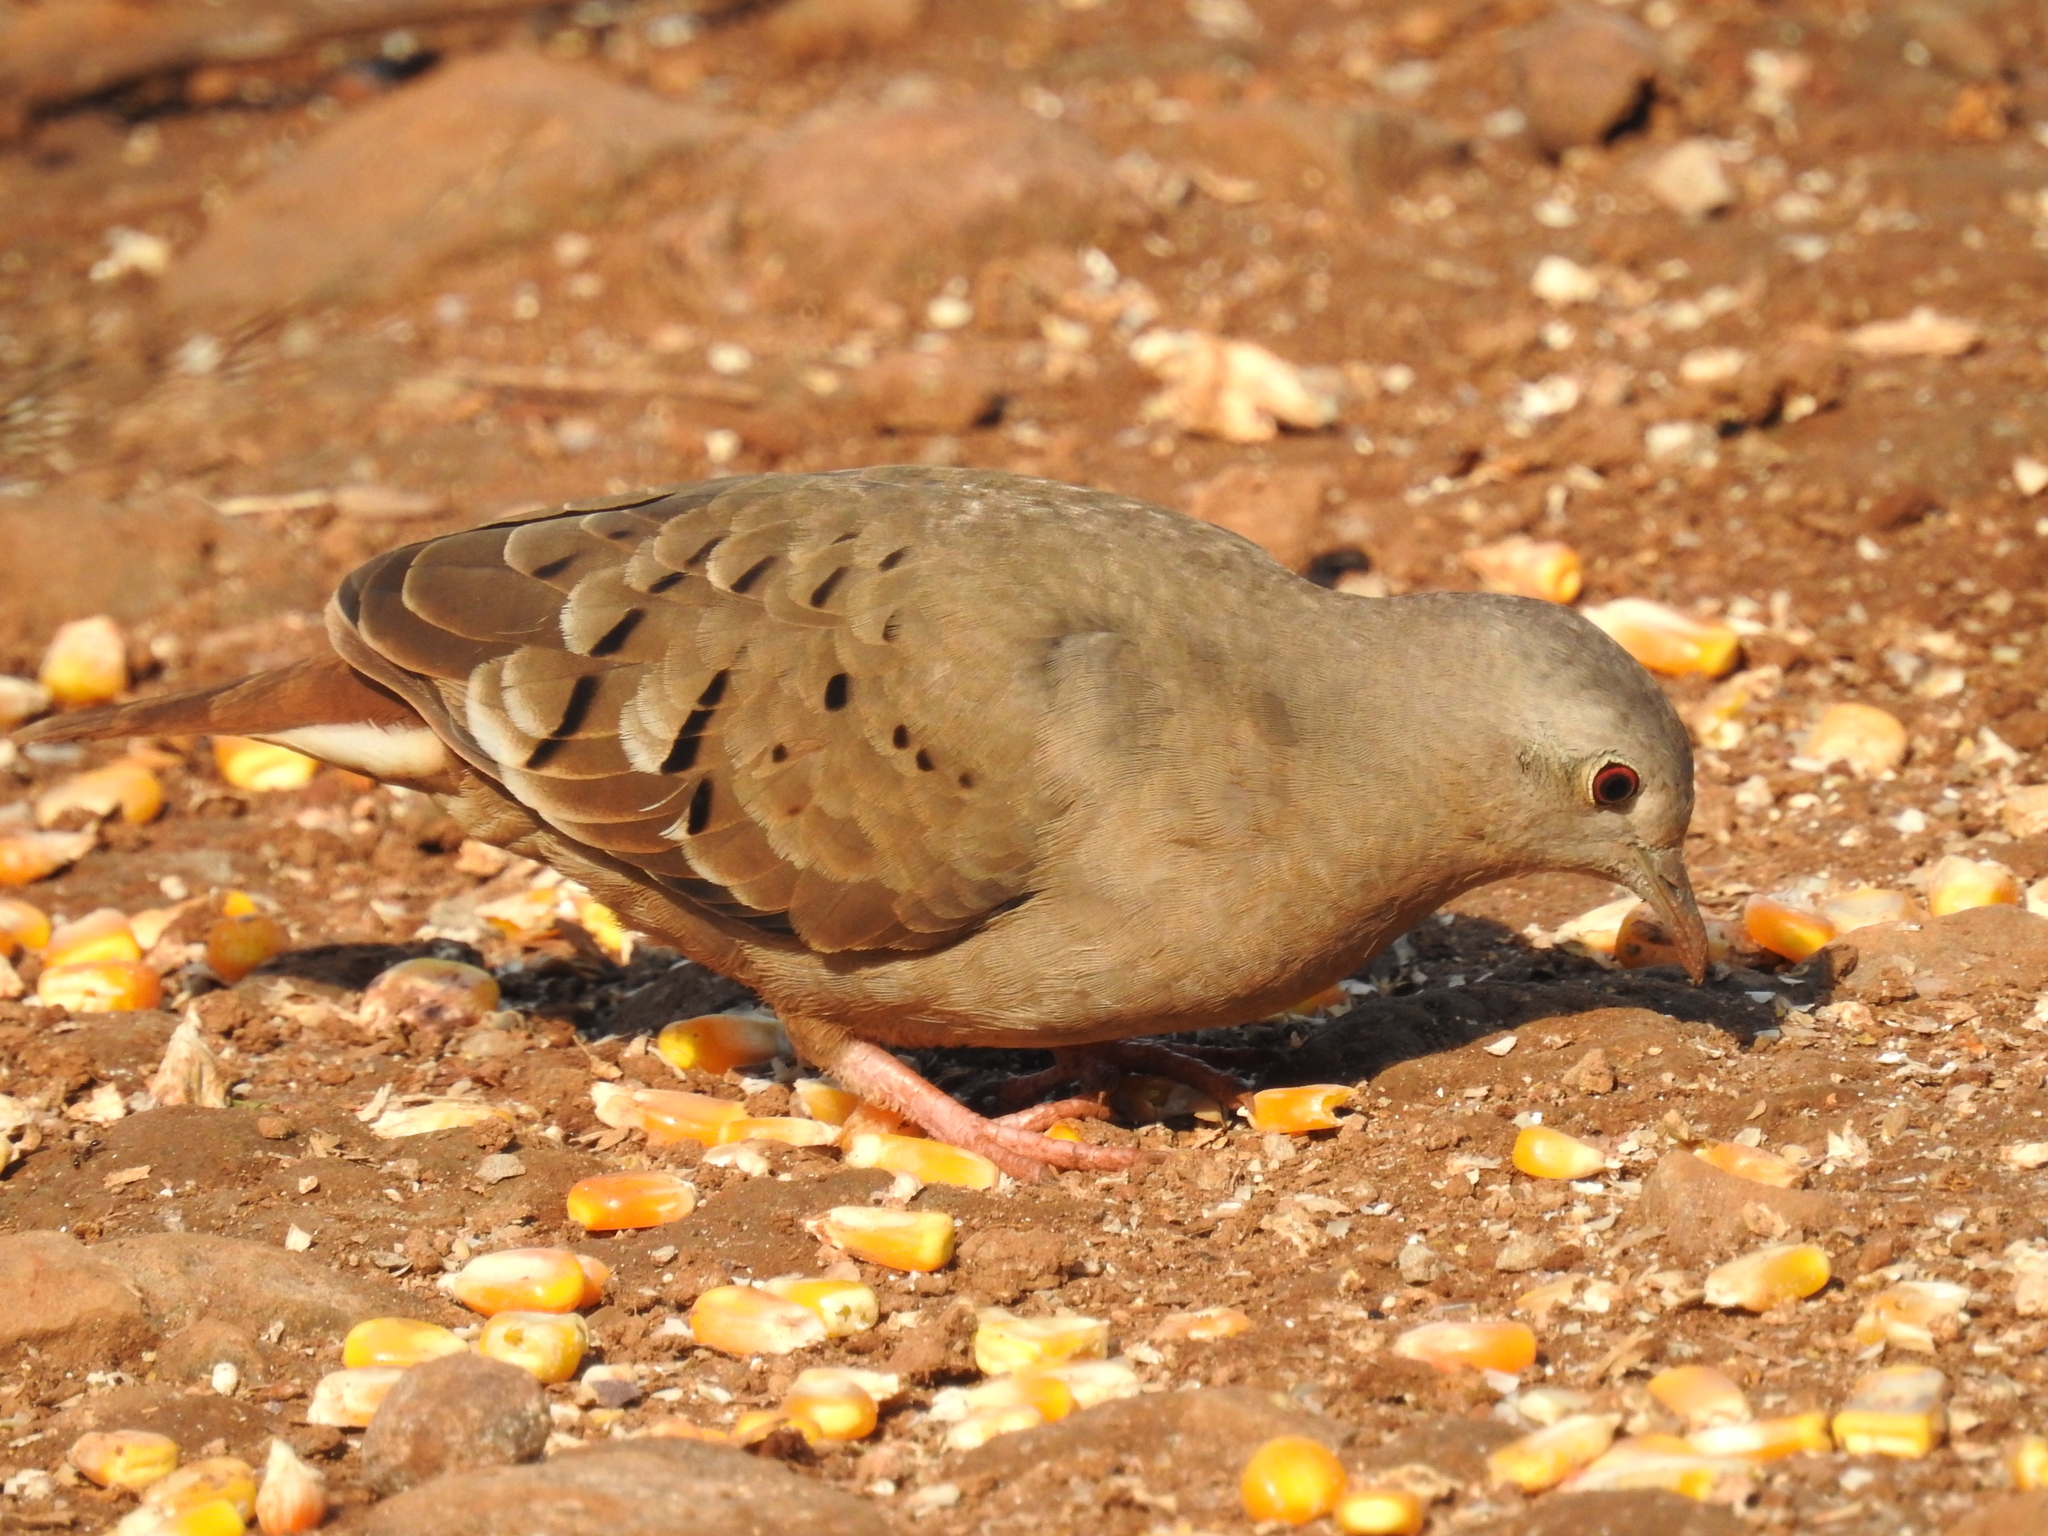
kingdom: Animalia
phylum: Chordata
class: Aves
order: Columbiformes
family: Columbidae
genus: Columbina
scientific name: Columbina talpacoti
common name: Ruddy ground dove
